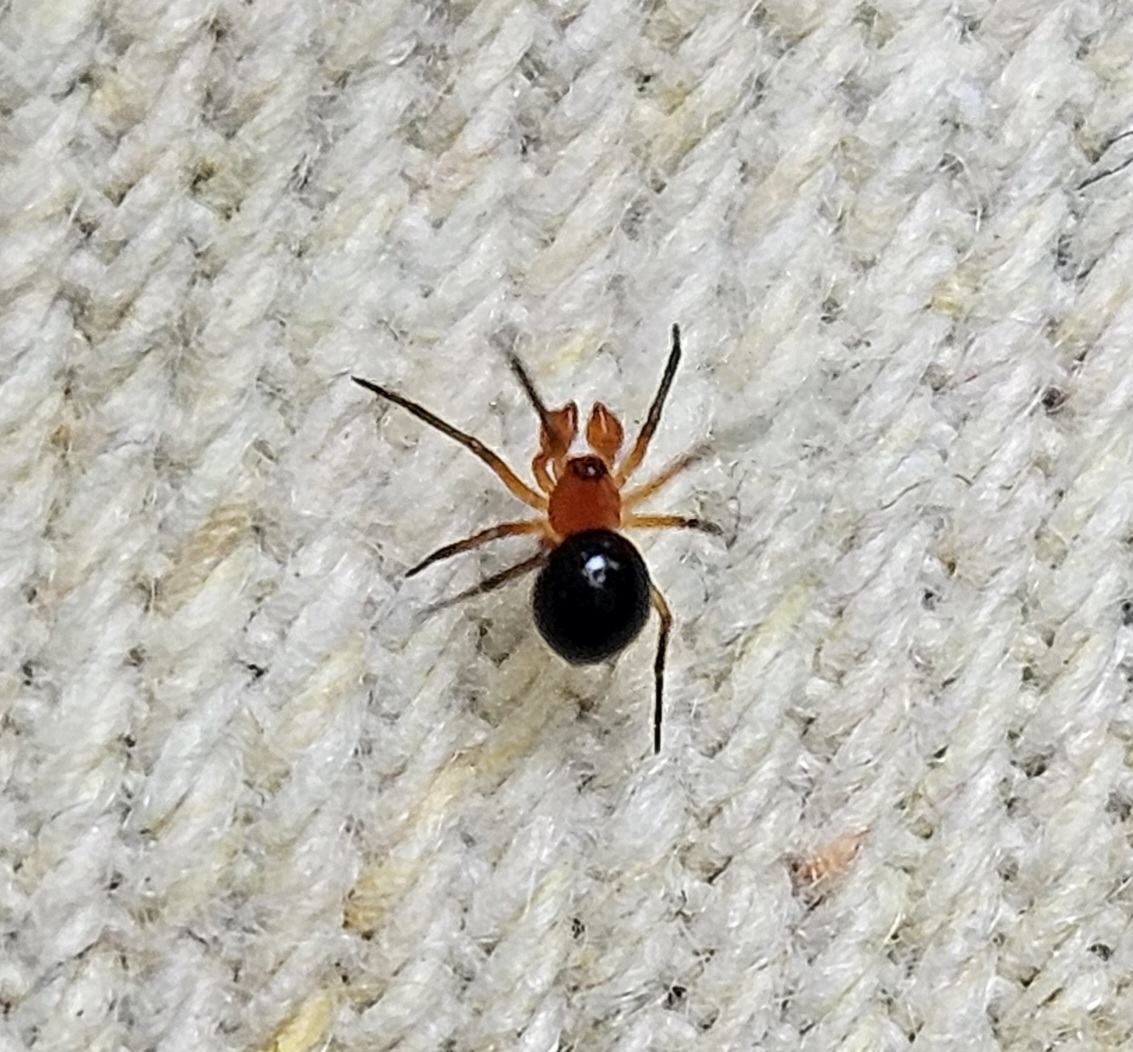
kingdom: Animalia
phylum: Arthropoda
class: Arachnida
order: Araneae
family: Linyphiidae
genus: Hypselistes
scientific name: Hypselistes florens
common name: Peatland sheetweb weaver
